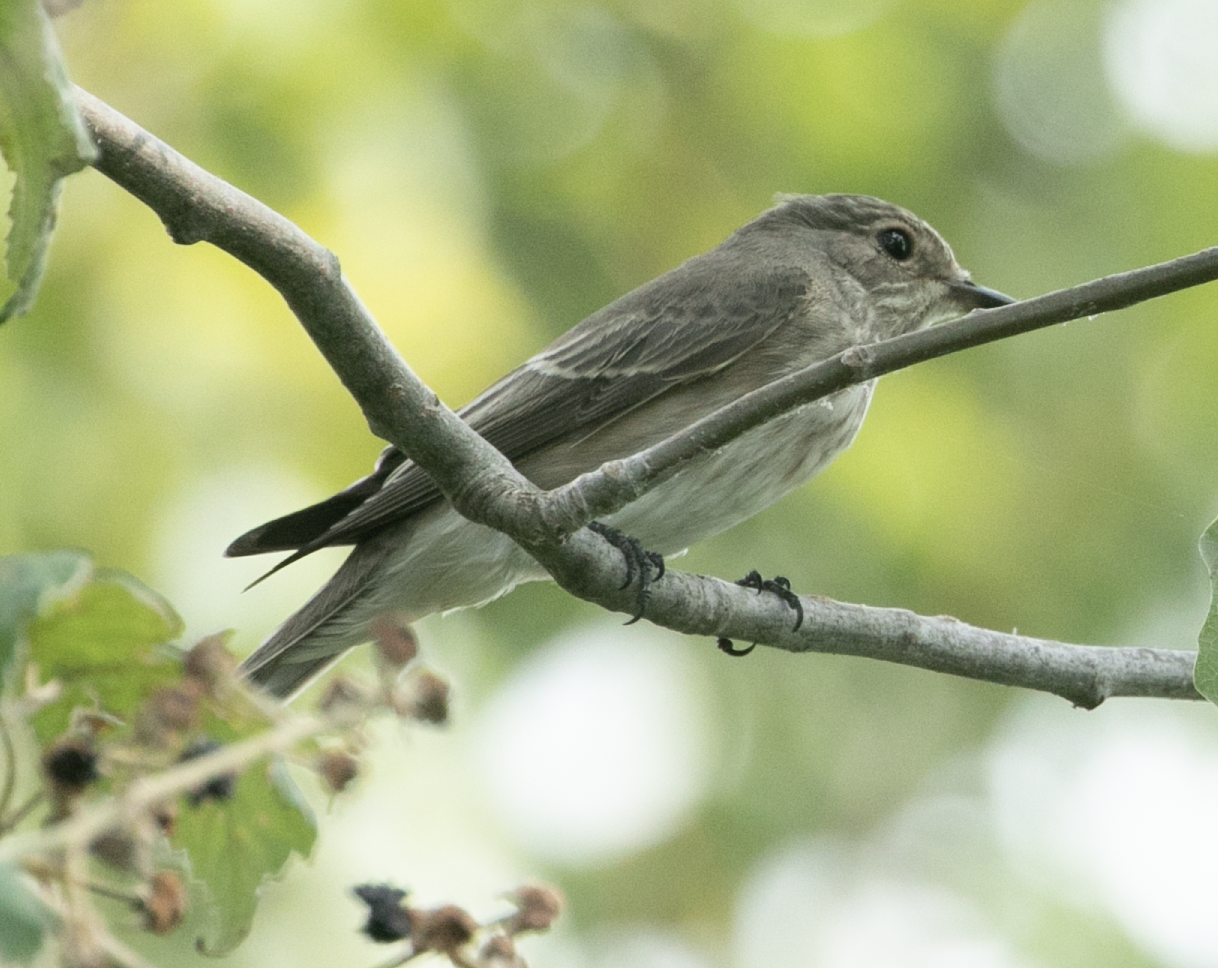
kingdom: Animalia
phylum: Chordata
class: Aves
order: Passeriformes
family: Muscicapidae
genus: Muscicapa
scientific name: Muscicapa striata
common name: Spotted flycatcher
